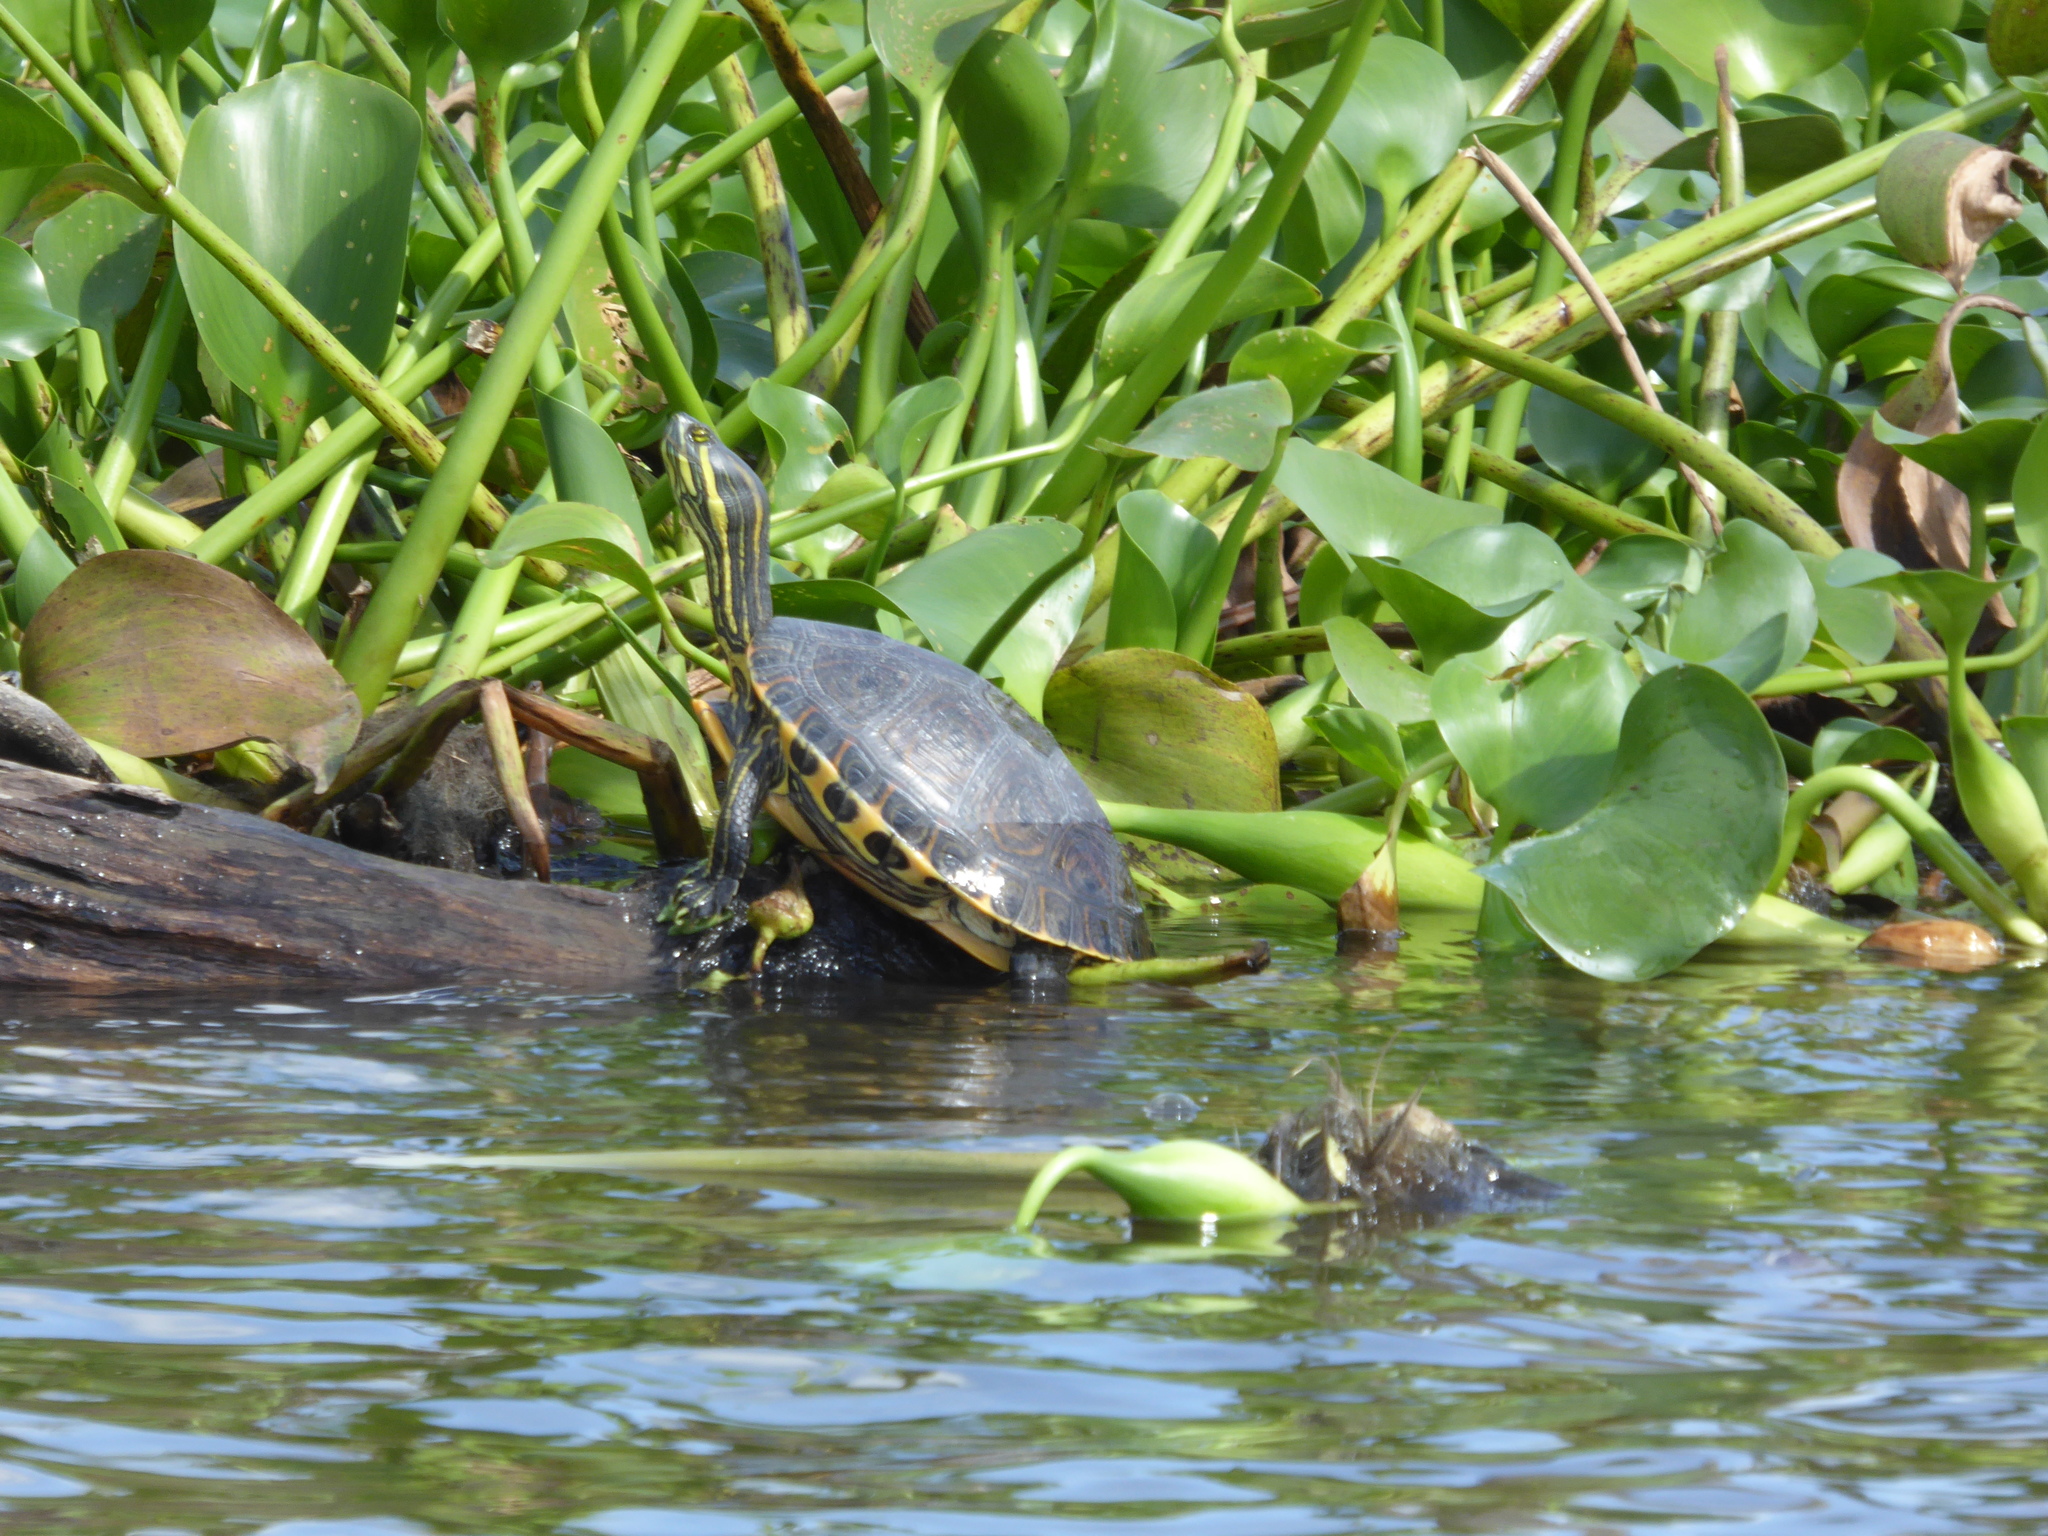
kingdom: Animalia
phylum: Chordata
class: Testudines
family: Emydidae
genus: Trachemys
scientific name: Trachemys venusta
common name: Mesoamerican slider
